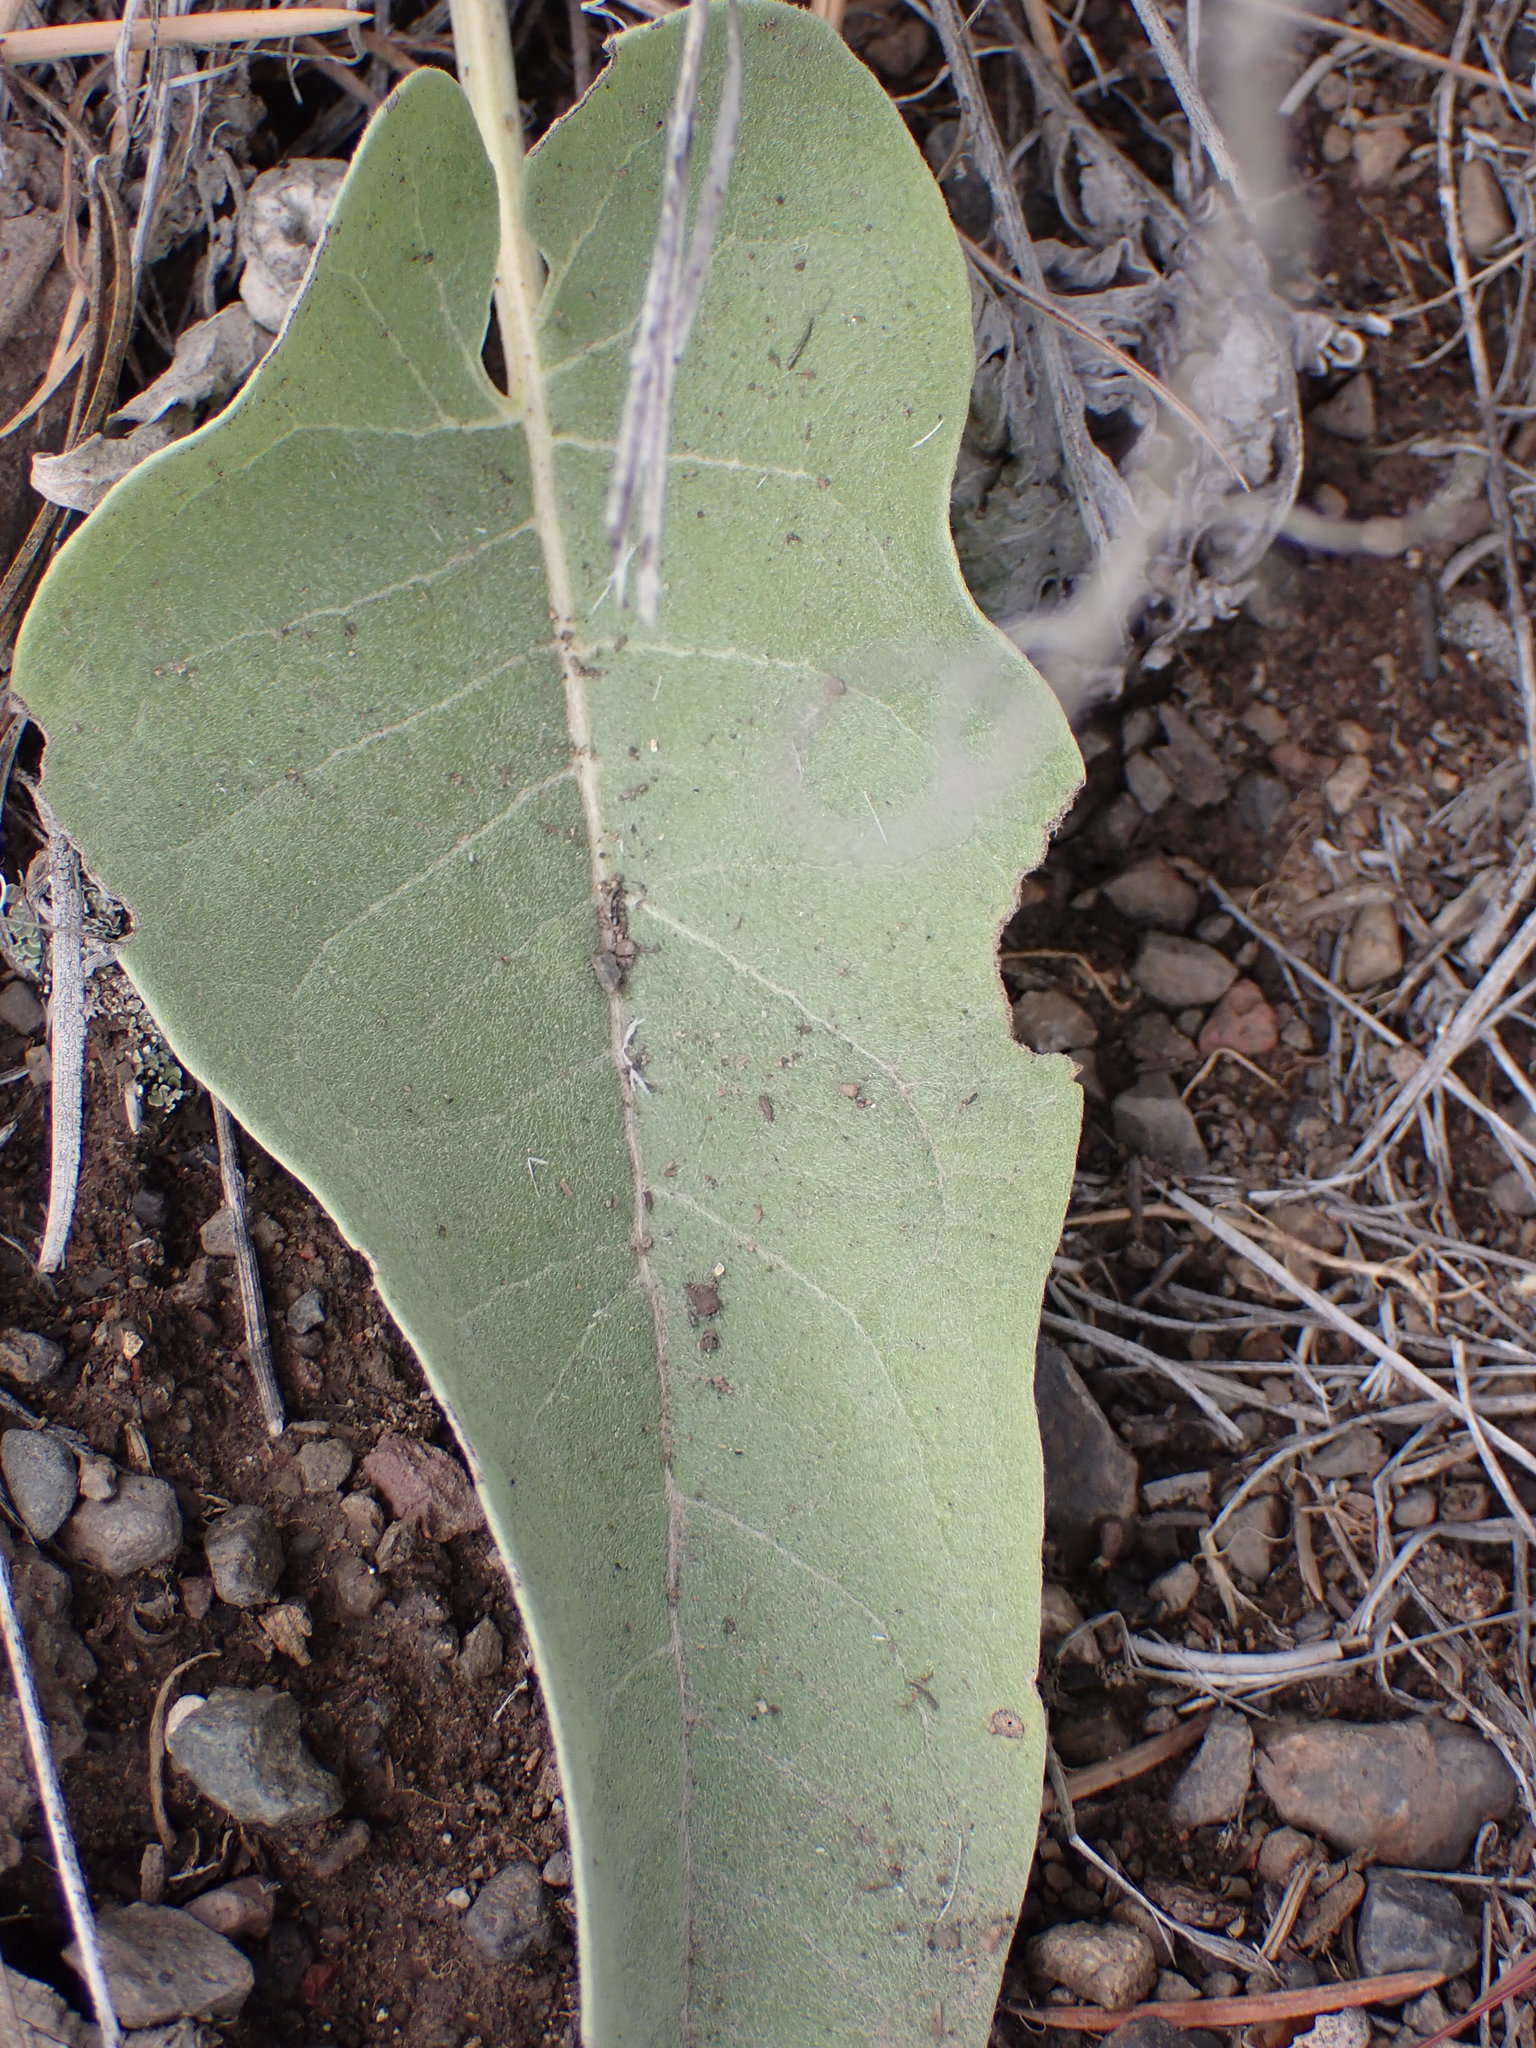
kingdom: Plantae
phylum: Tracheophyta
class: Magnoliopsida
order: Asterales
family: Asteraceae
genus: Wyethia
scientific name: Wyethia sagittata
